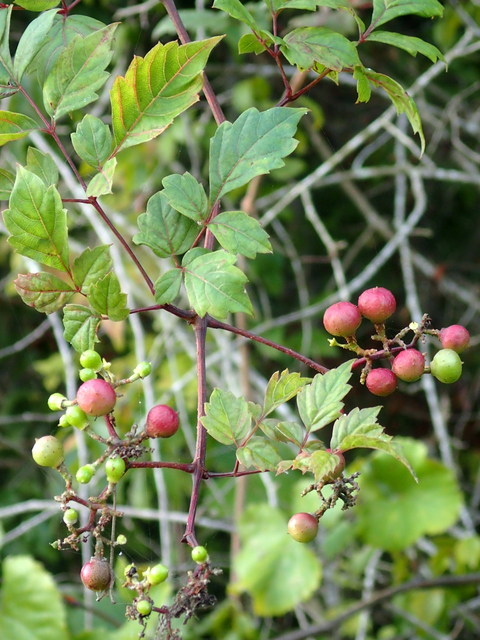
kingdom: Plantae
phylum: Tracheophyta
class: Magnoliopsida
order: Vitales
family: Vitaceae
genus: Nekemias
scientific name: Nekemias arborea
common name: Peppervine
